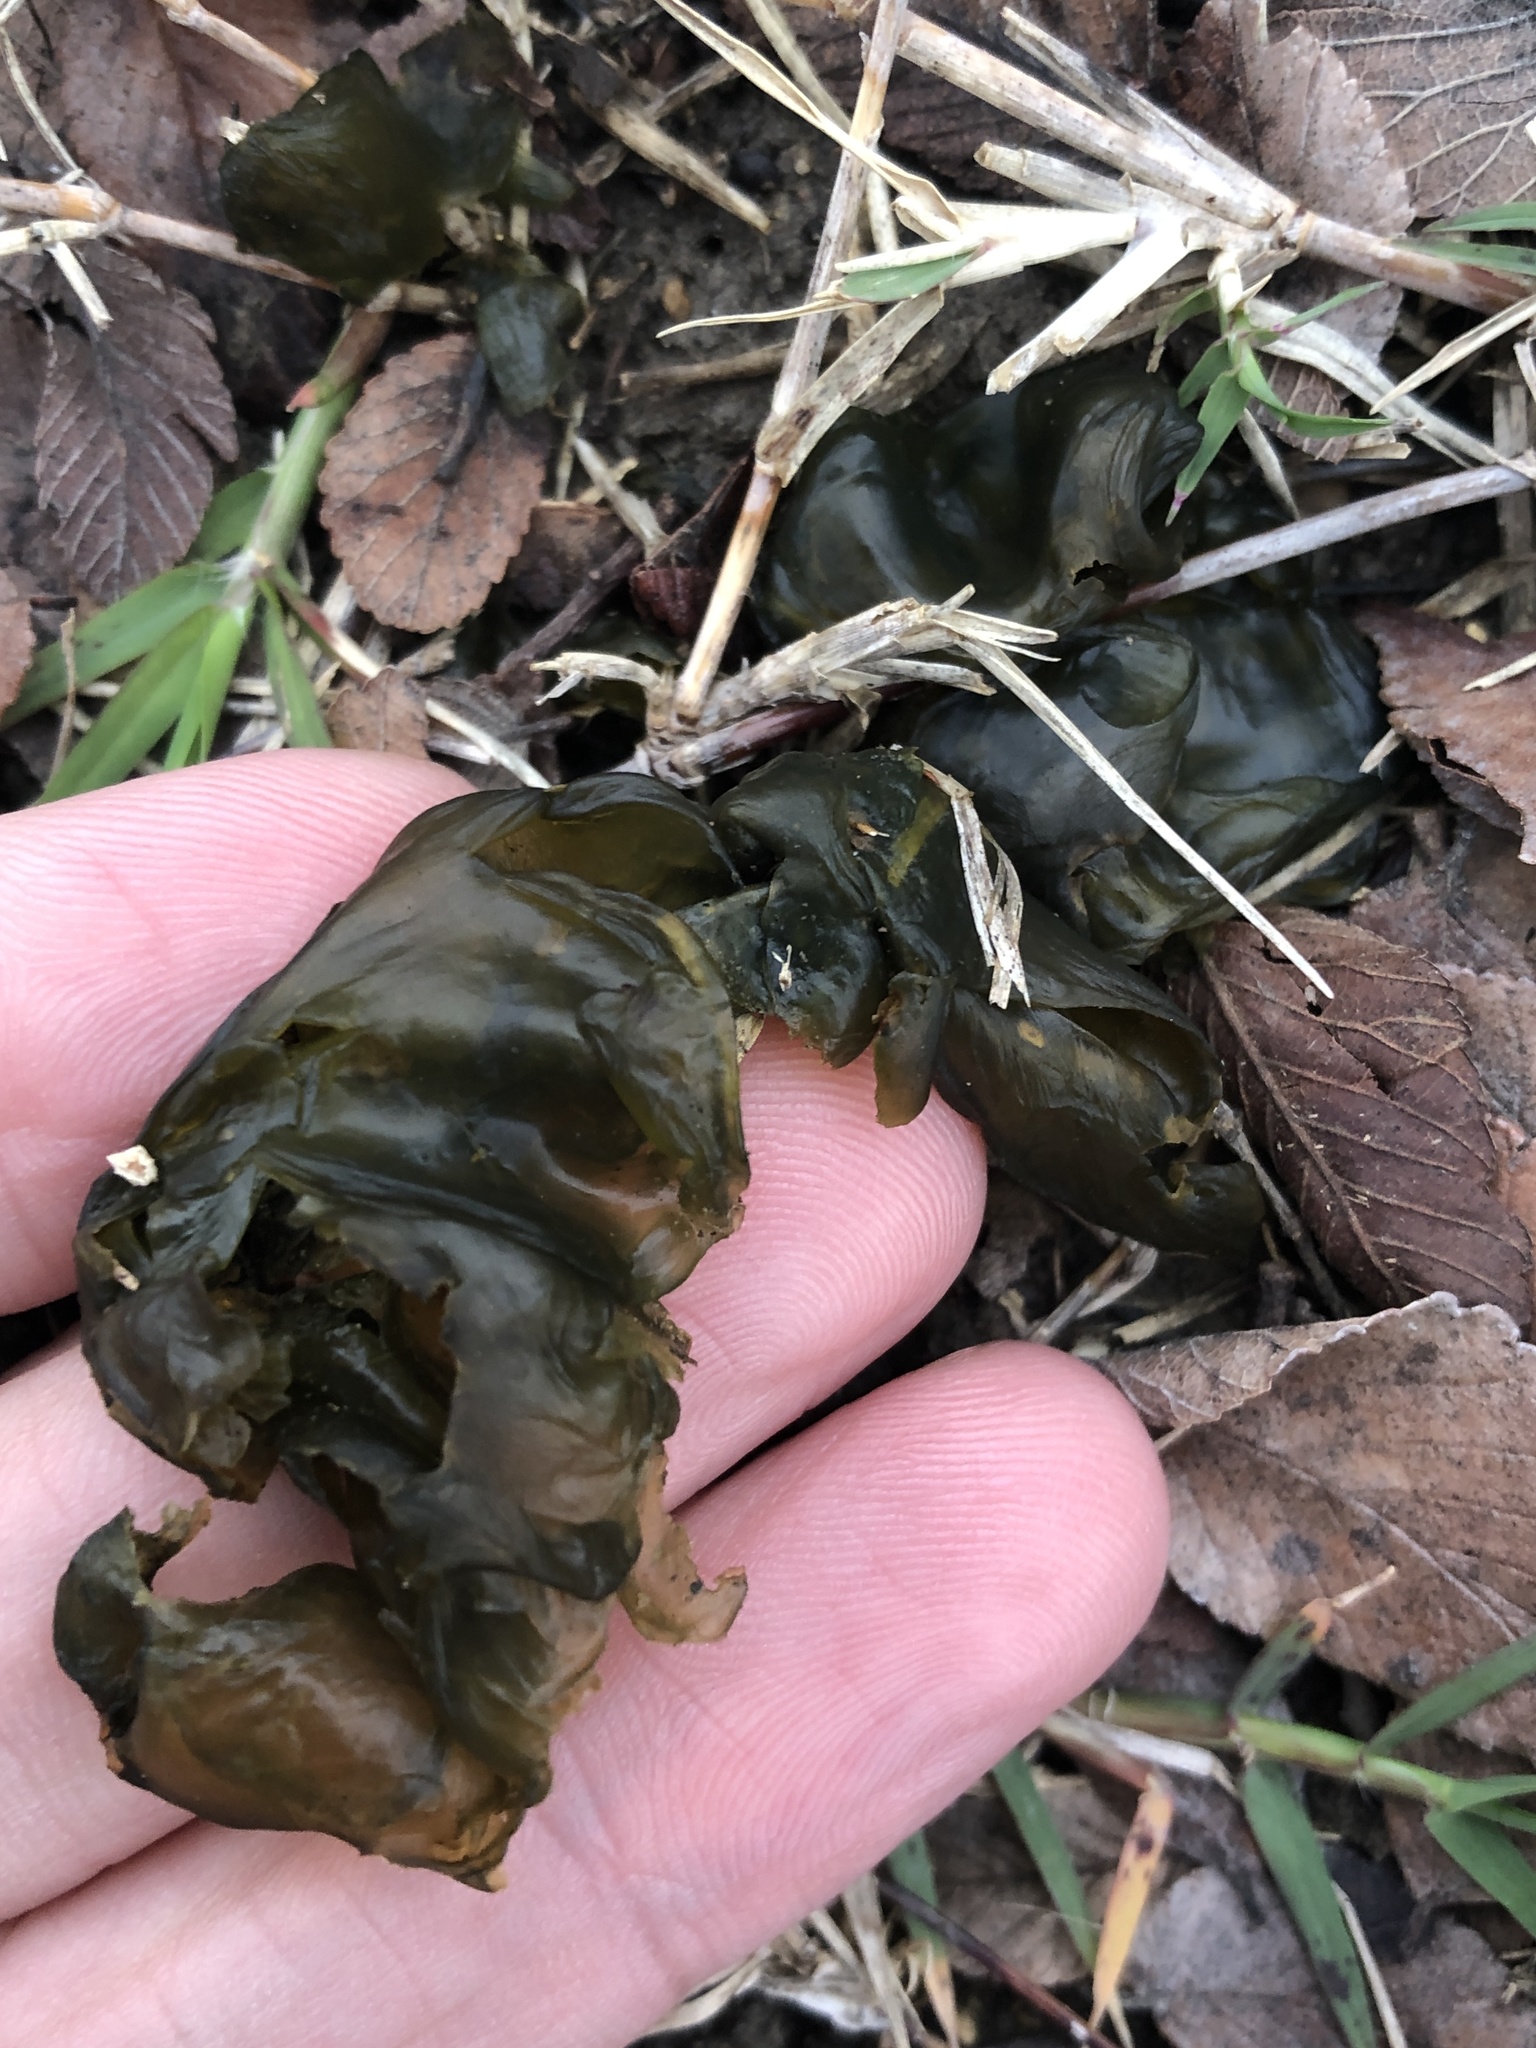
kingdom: Bacteria
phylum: Cyanobacteria
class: Cyanobacteriia
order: Cyanobacteriales
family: Nostocaceae
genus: Nostoc
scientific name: Nostoc commune
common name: Star jelly
